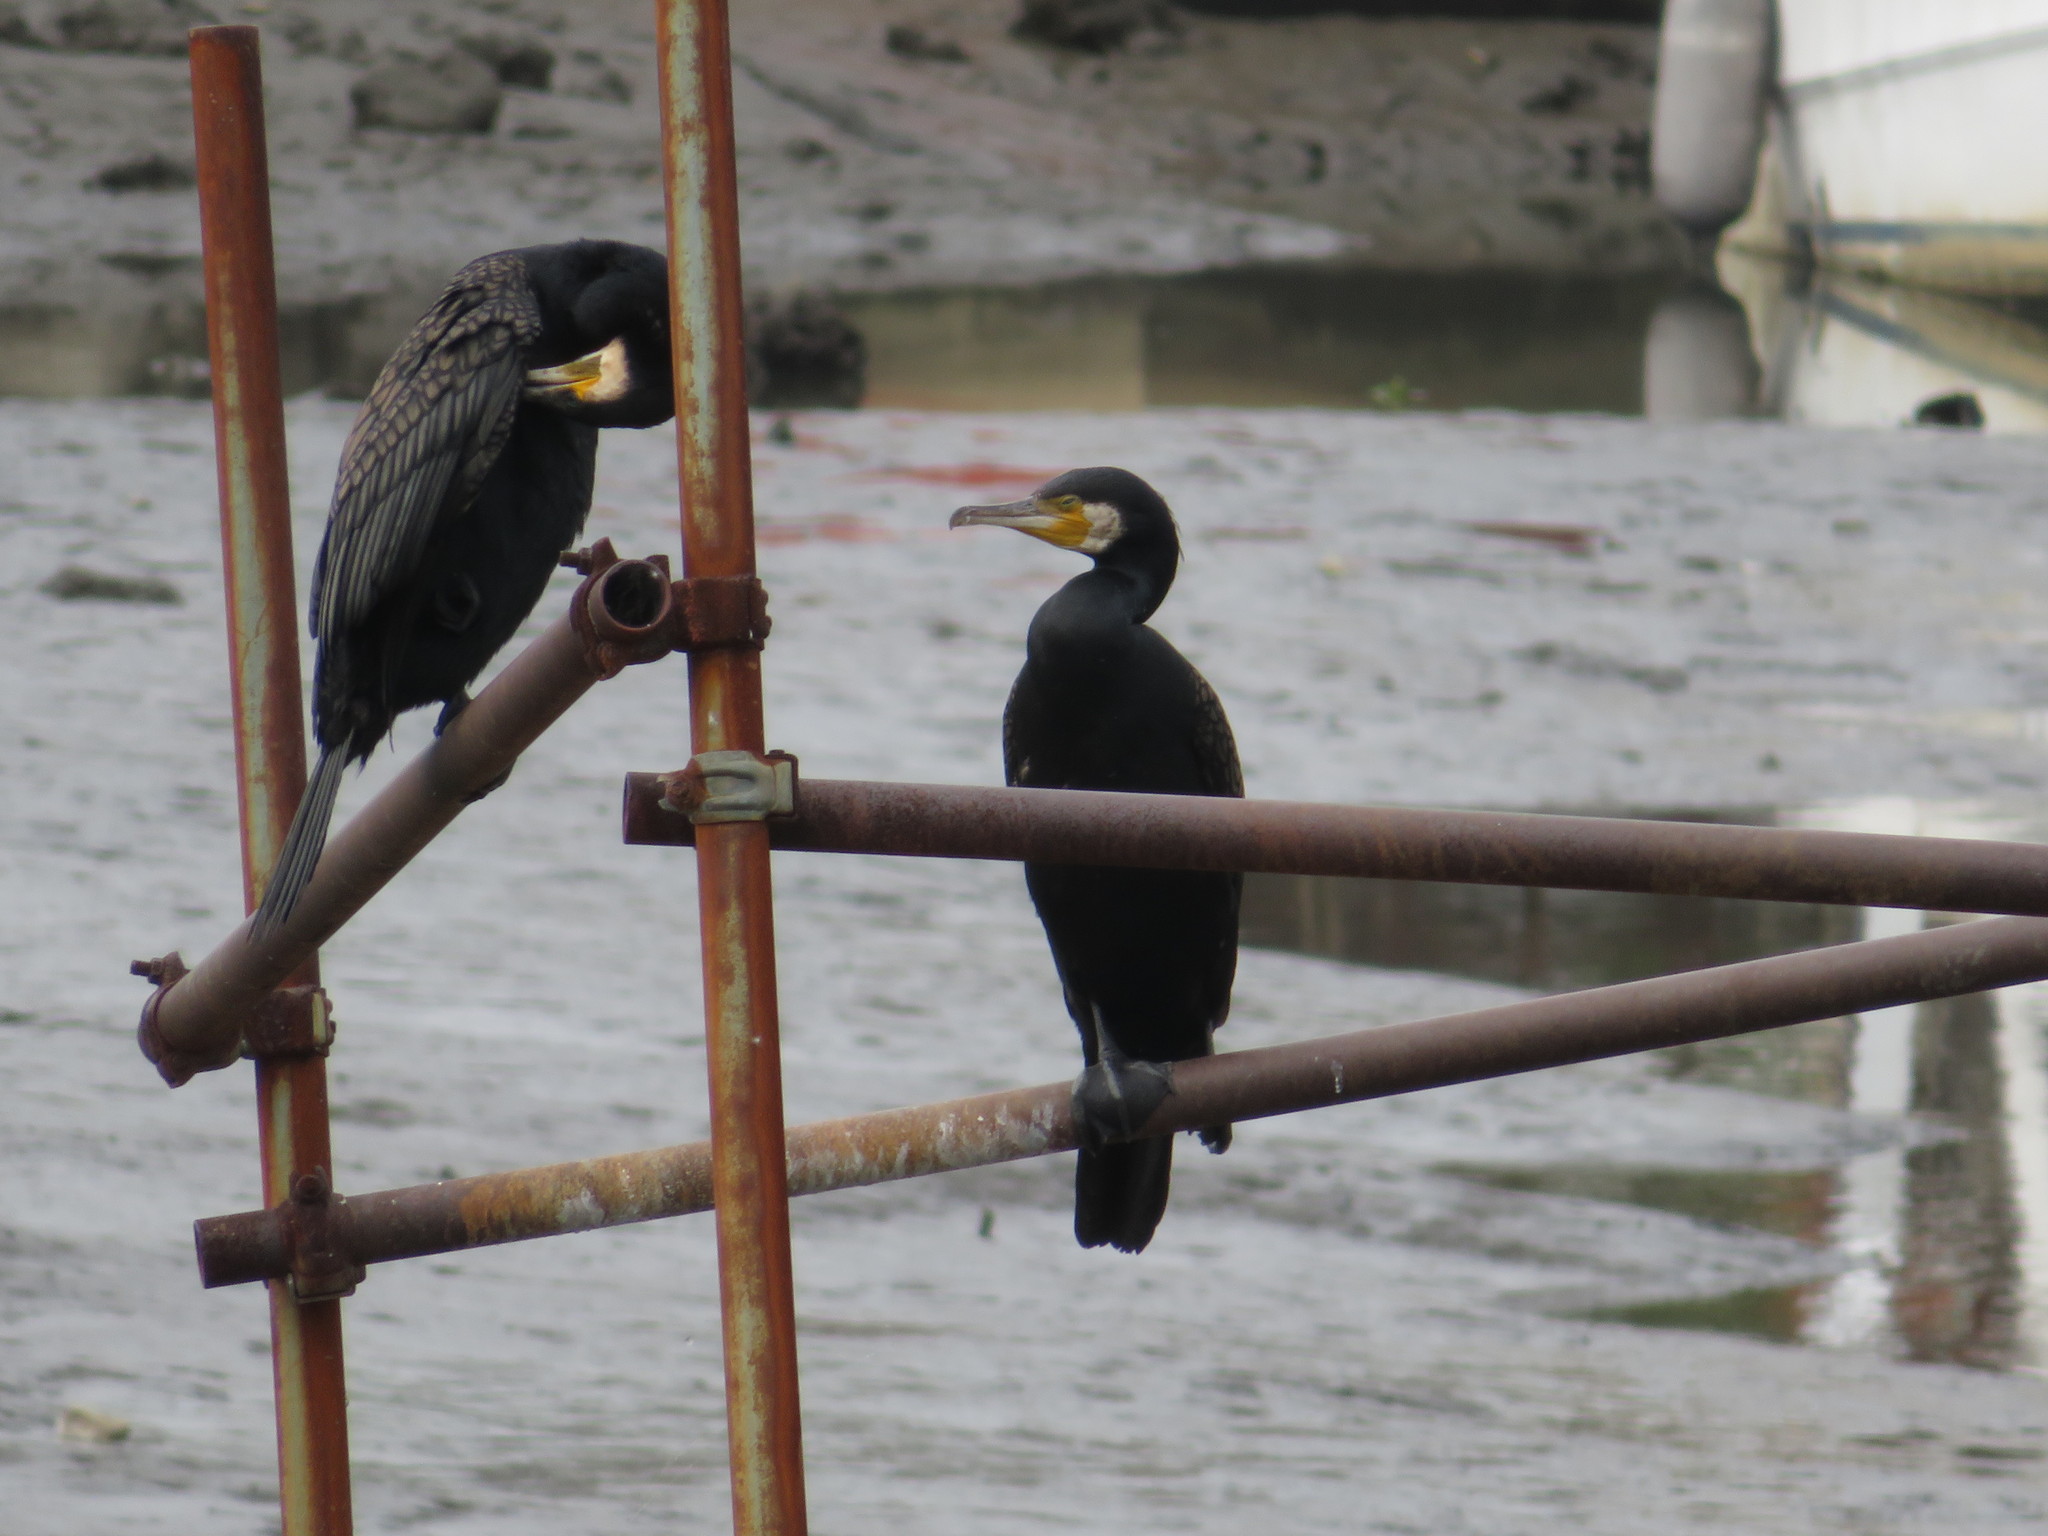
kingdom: Animalia
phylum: Chordata
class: Aves
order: Suliformes
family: Phalacrocoracidae
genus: Phalacrocorax
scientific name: Phalacrocorax carbo
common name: Great cormorant
